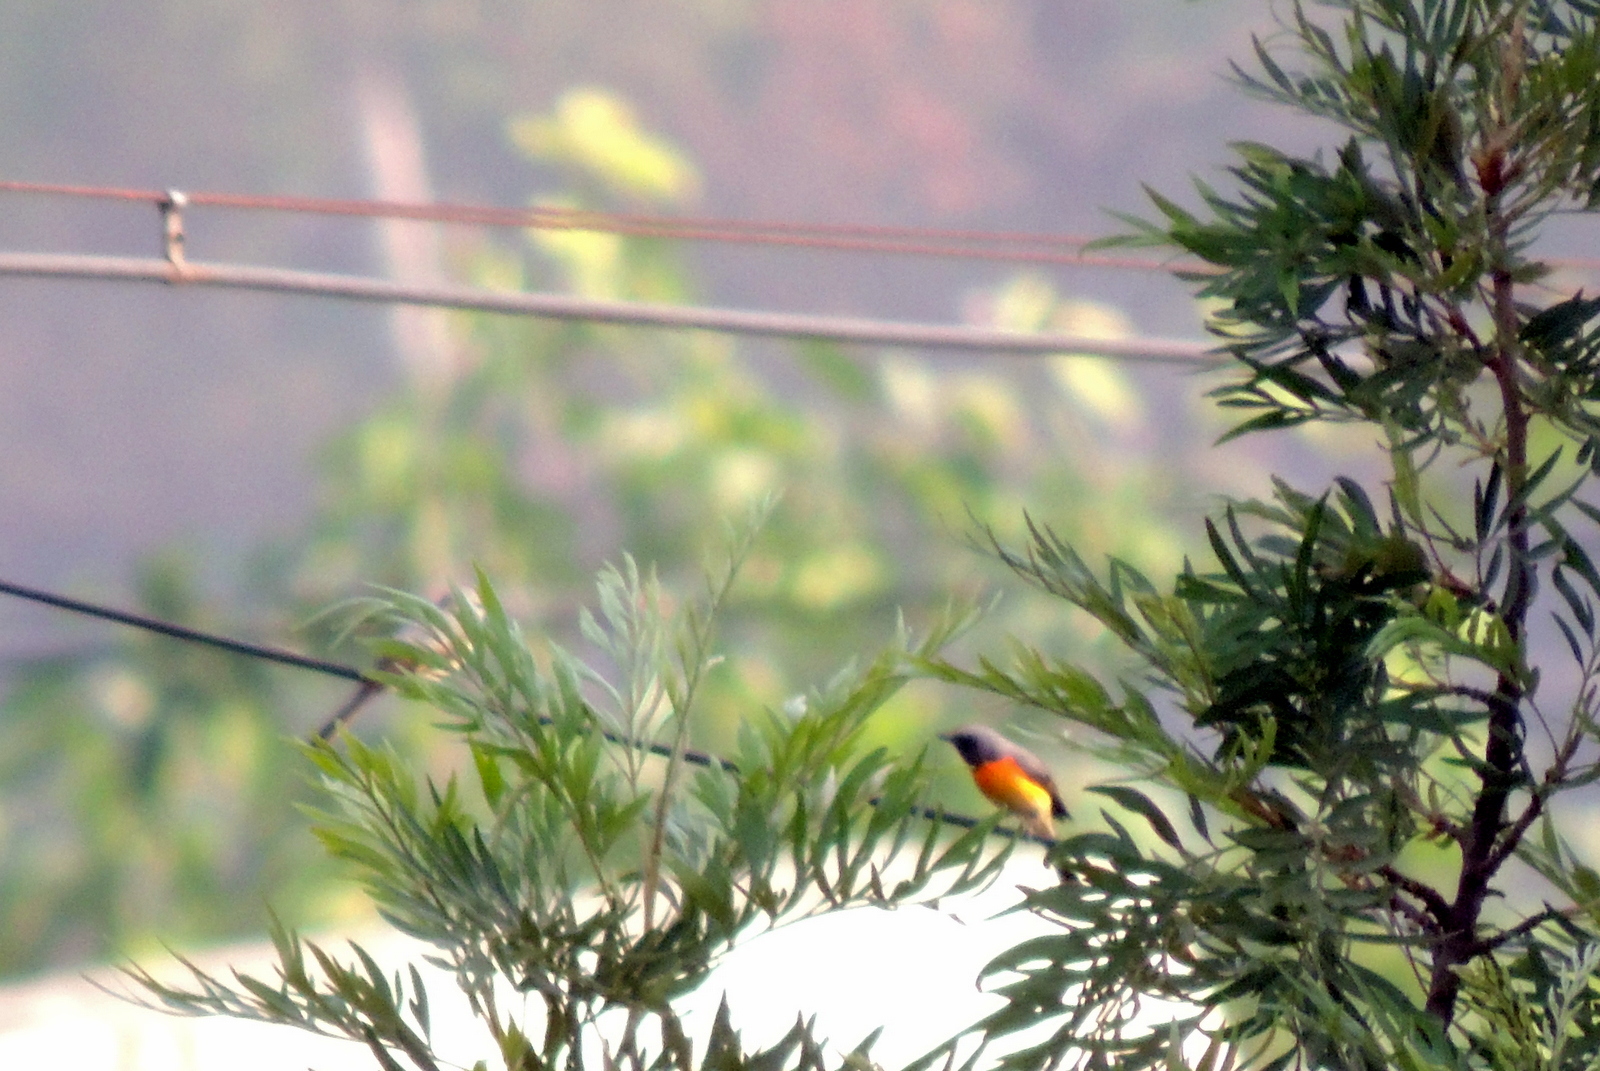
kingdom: Animalia
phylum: Chordata
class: Aves
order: Passeriformes
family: Campephagidae
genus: Pericrocotus
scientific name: Pericrocotus cinnamomeus
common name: Small minivet
